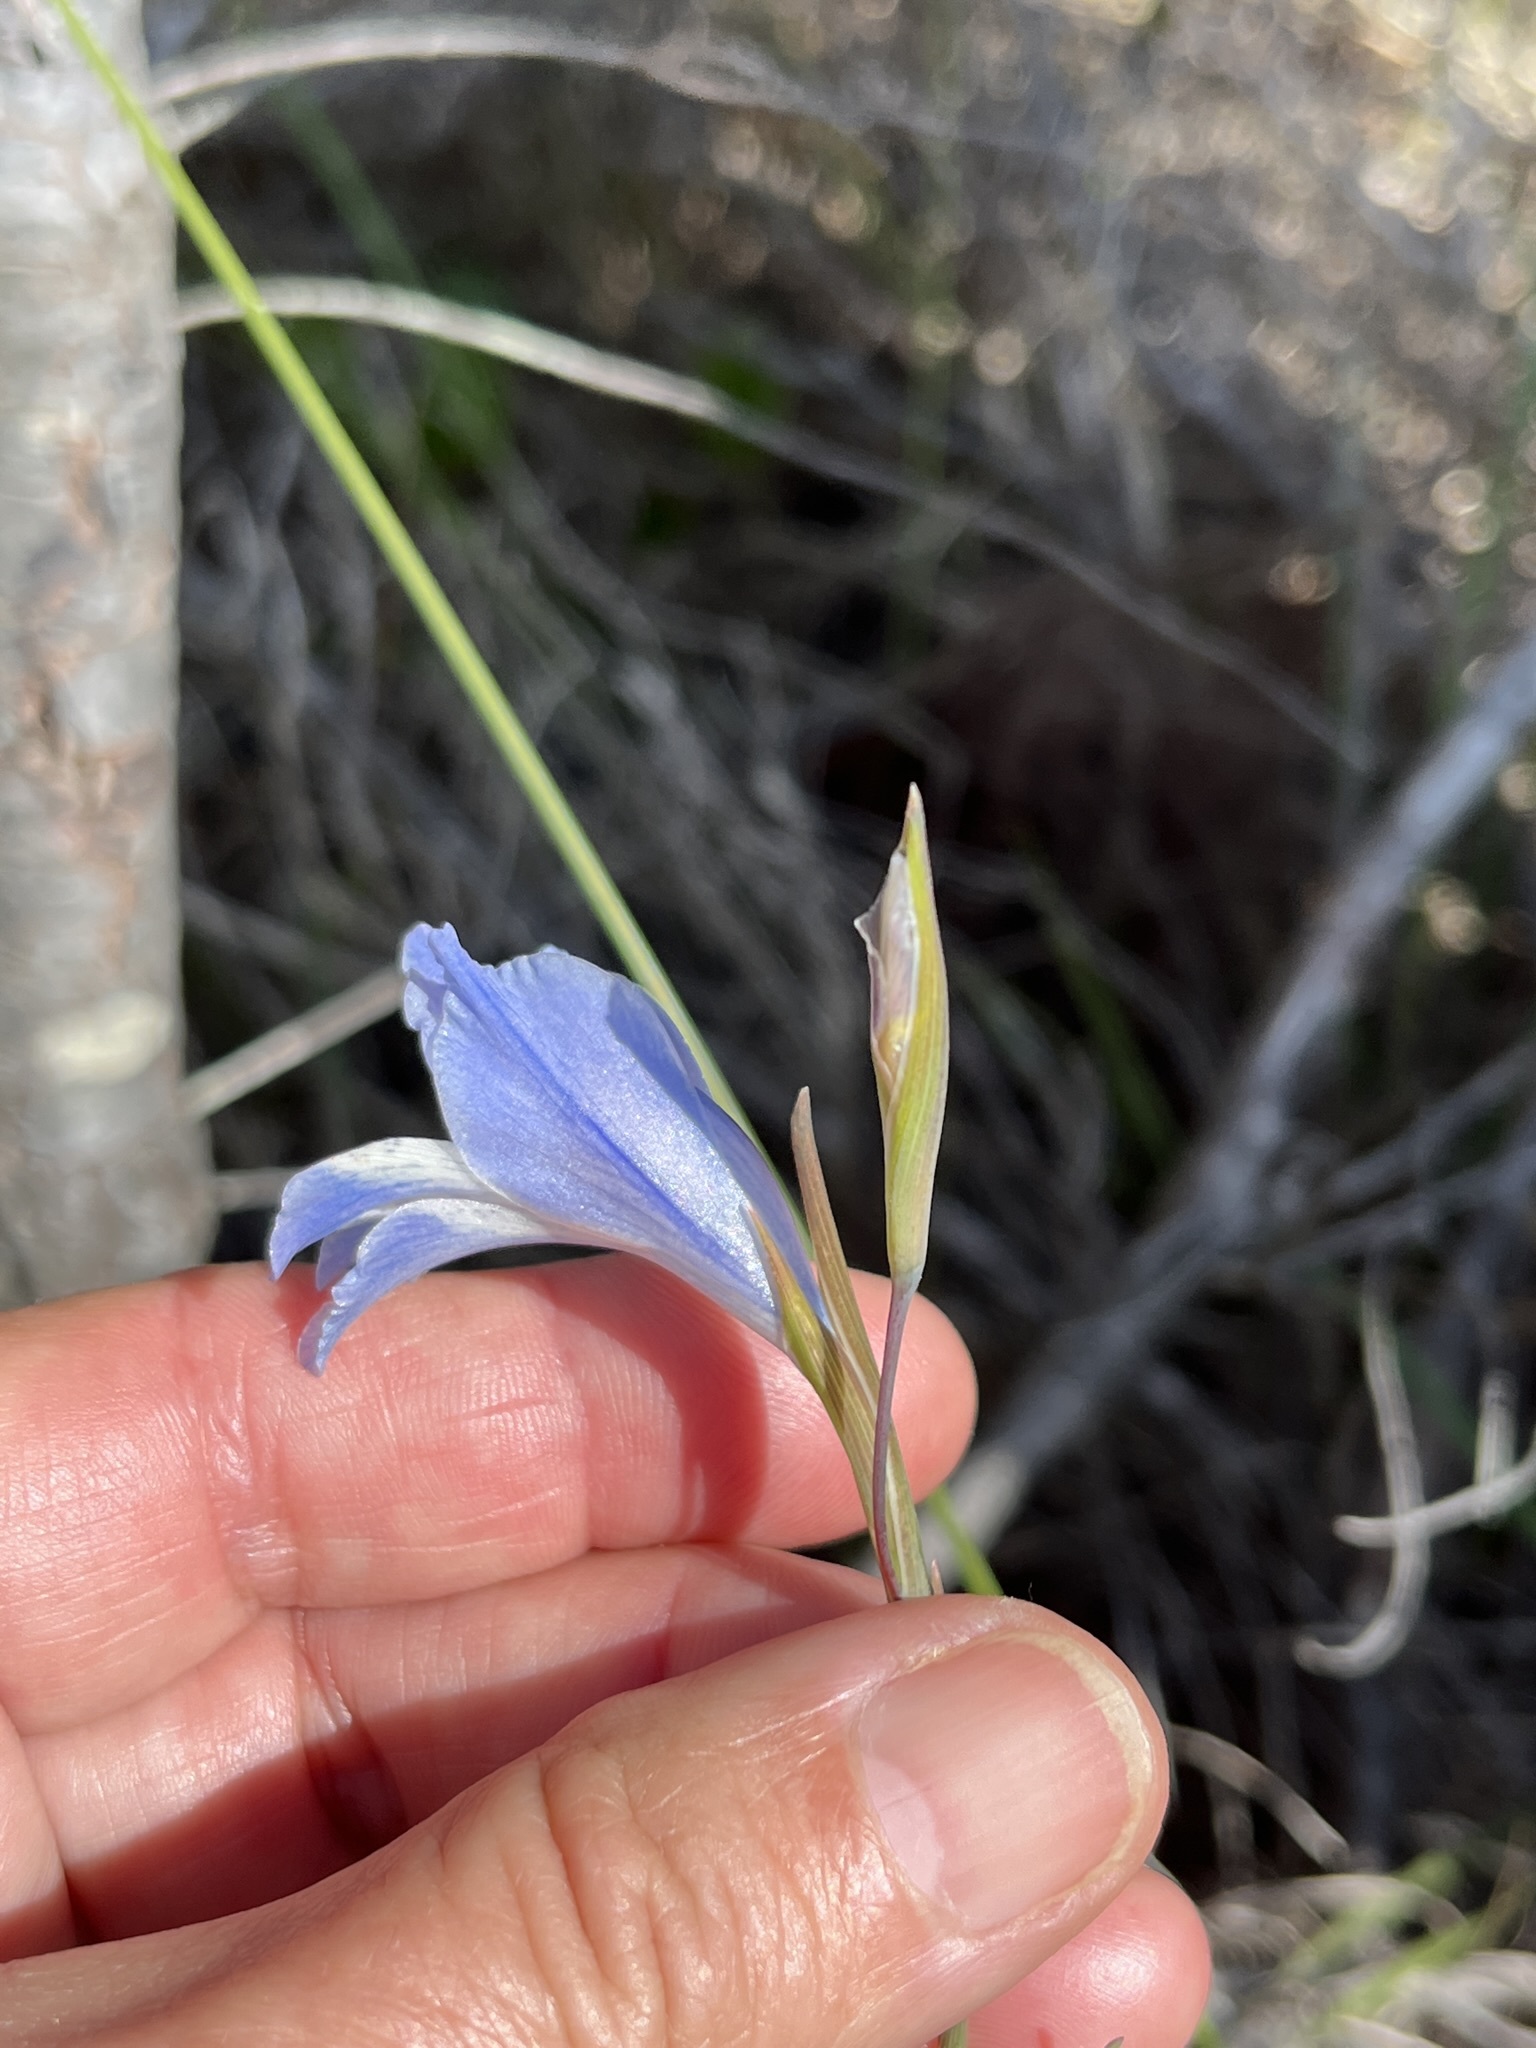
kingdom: Plantae
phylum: Tracheophyta
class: Liliopsida
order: Asparagales
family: Iridaceae
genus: Gladiolus
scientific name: Gladiolus gracilis
